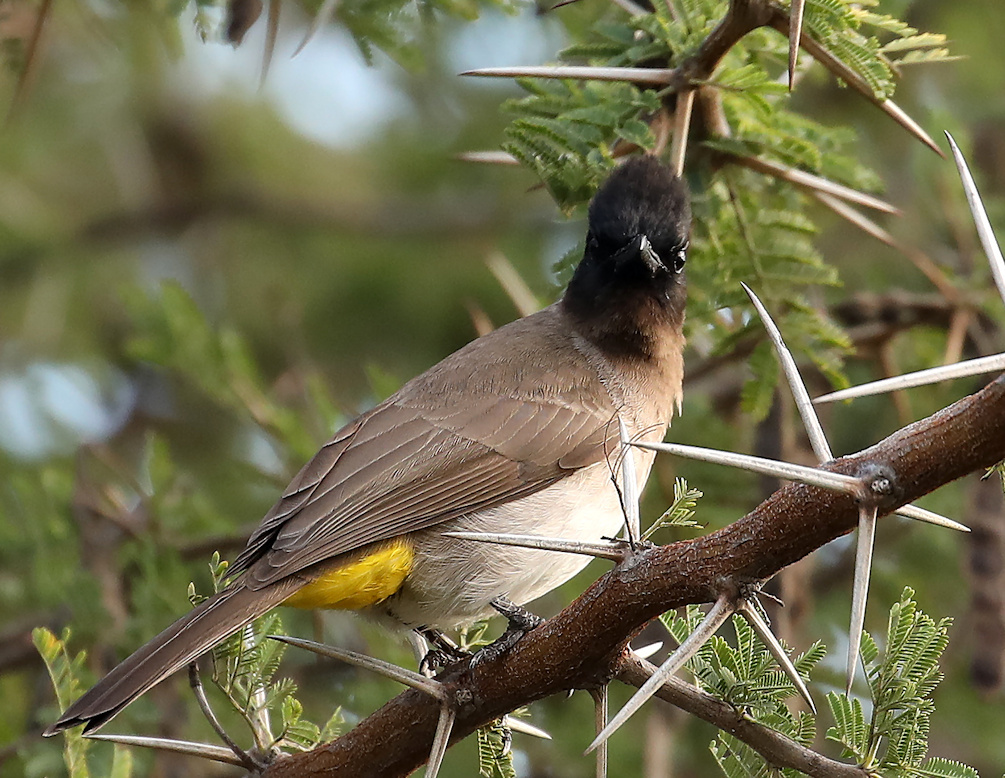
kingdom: Animalia
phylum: Chordata
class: Aves
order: Passeriformes
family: Pycnonotidae
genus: Pycnonotus
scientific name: Pycnonotus barbatus
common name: Common bulbul
